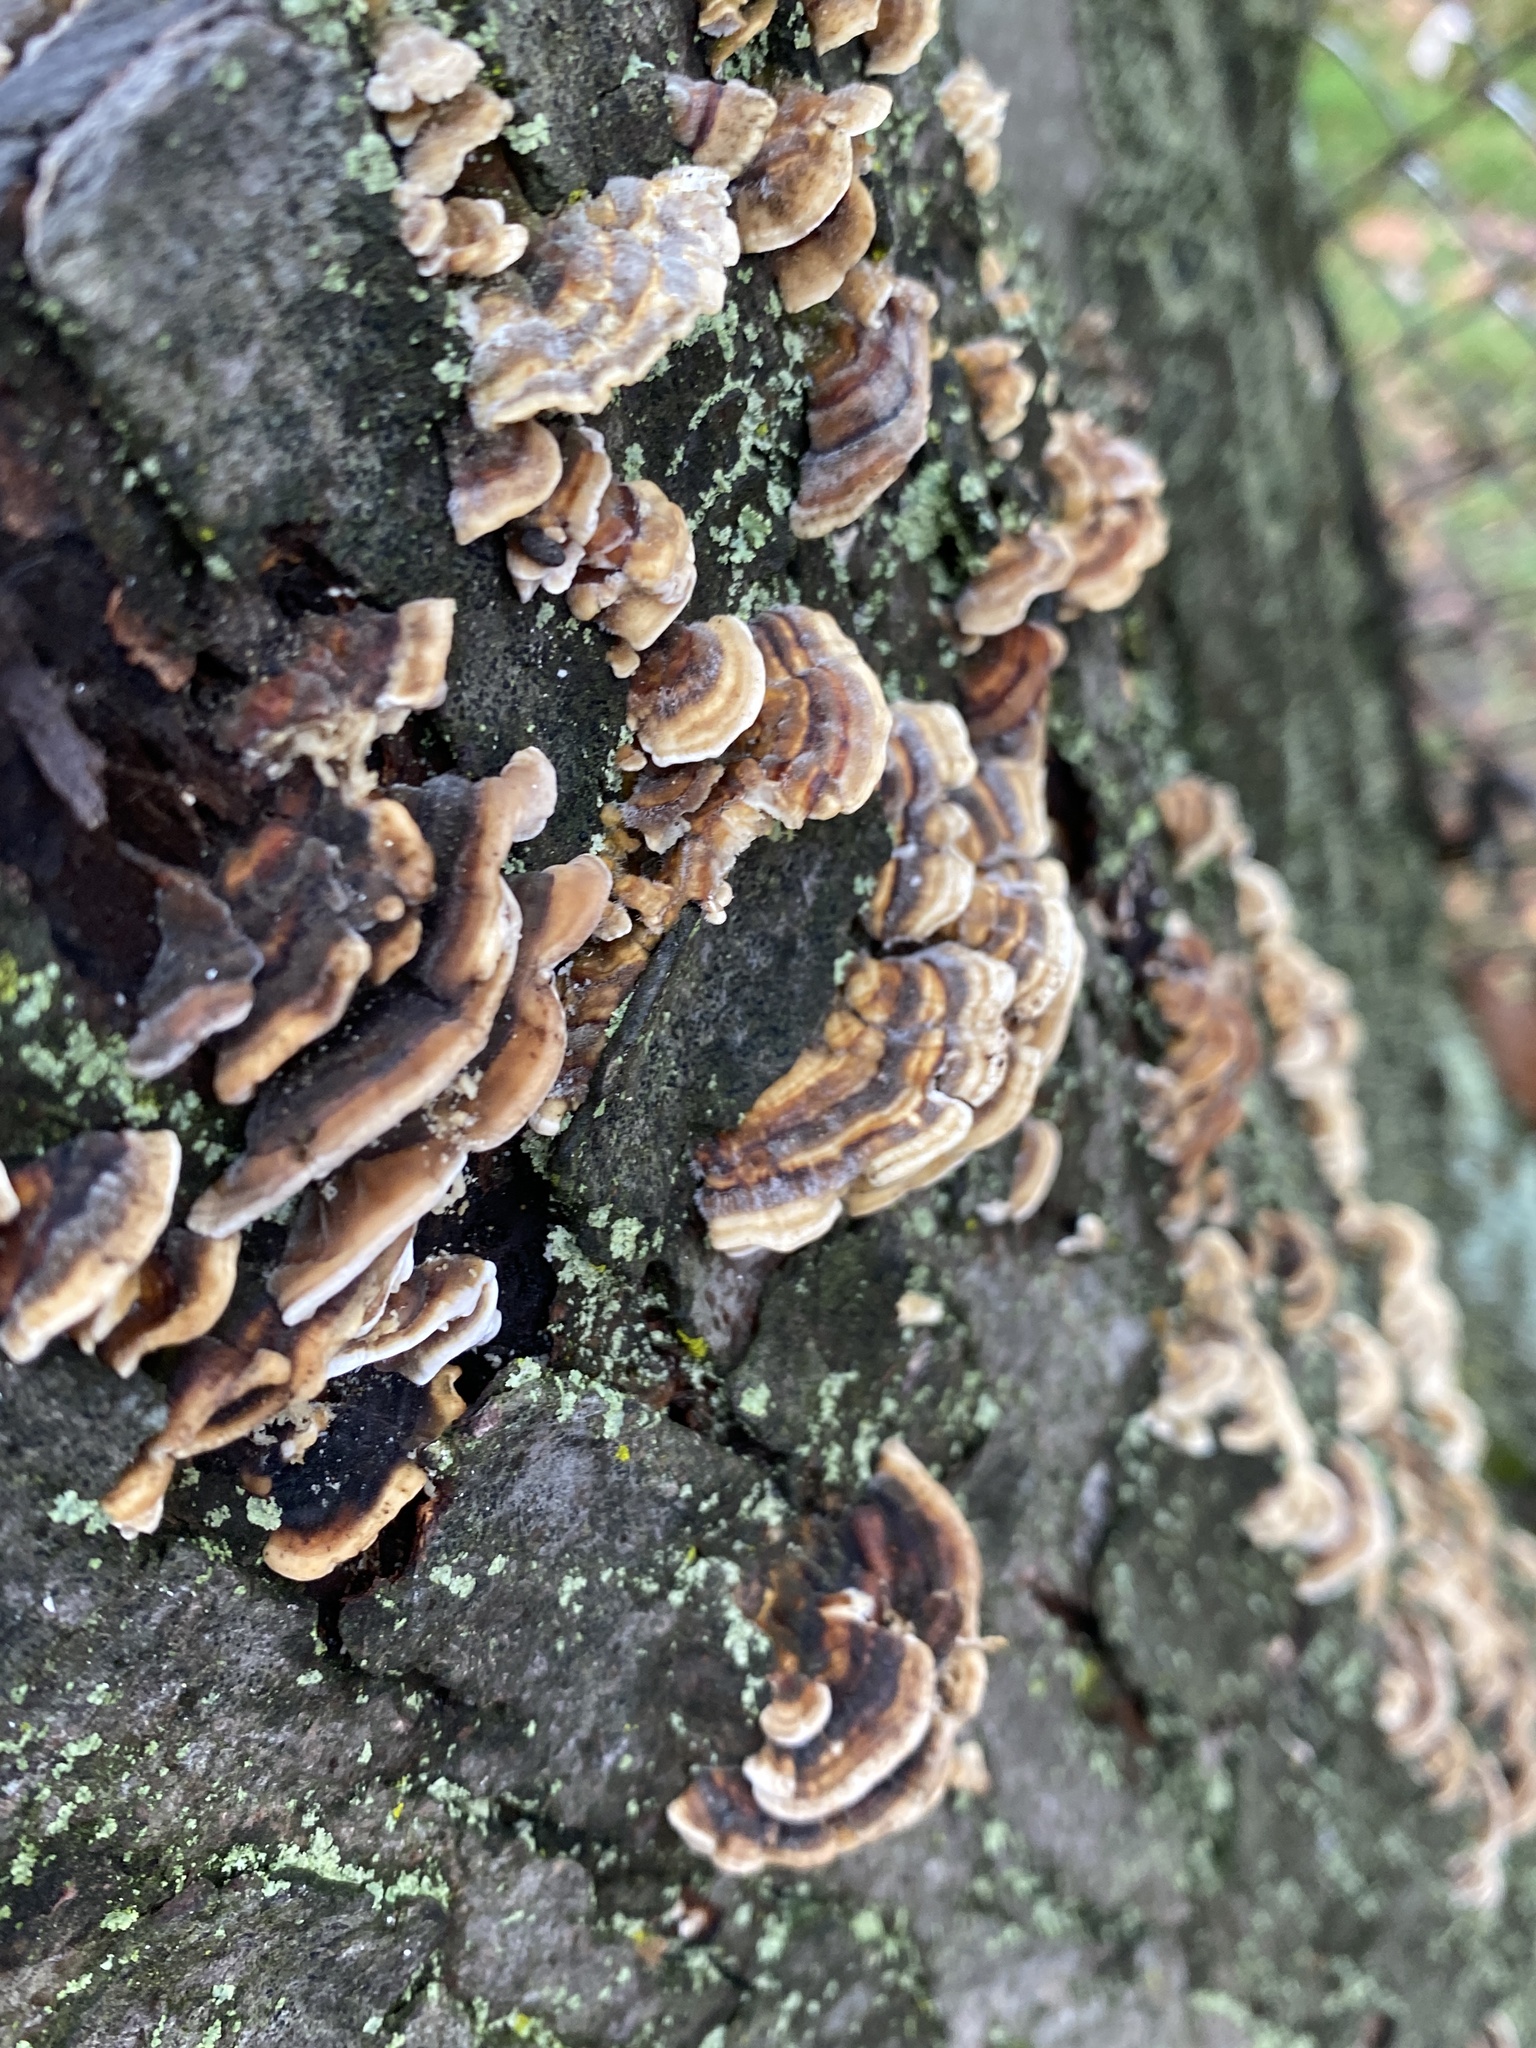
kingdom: Fungi
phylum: Basidiomycota
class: Agaricomycetes
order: Polyporales
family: Polyporaceae
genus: Trametes
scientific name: Trametes hirsuta
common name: Hairy bracket
